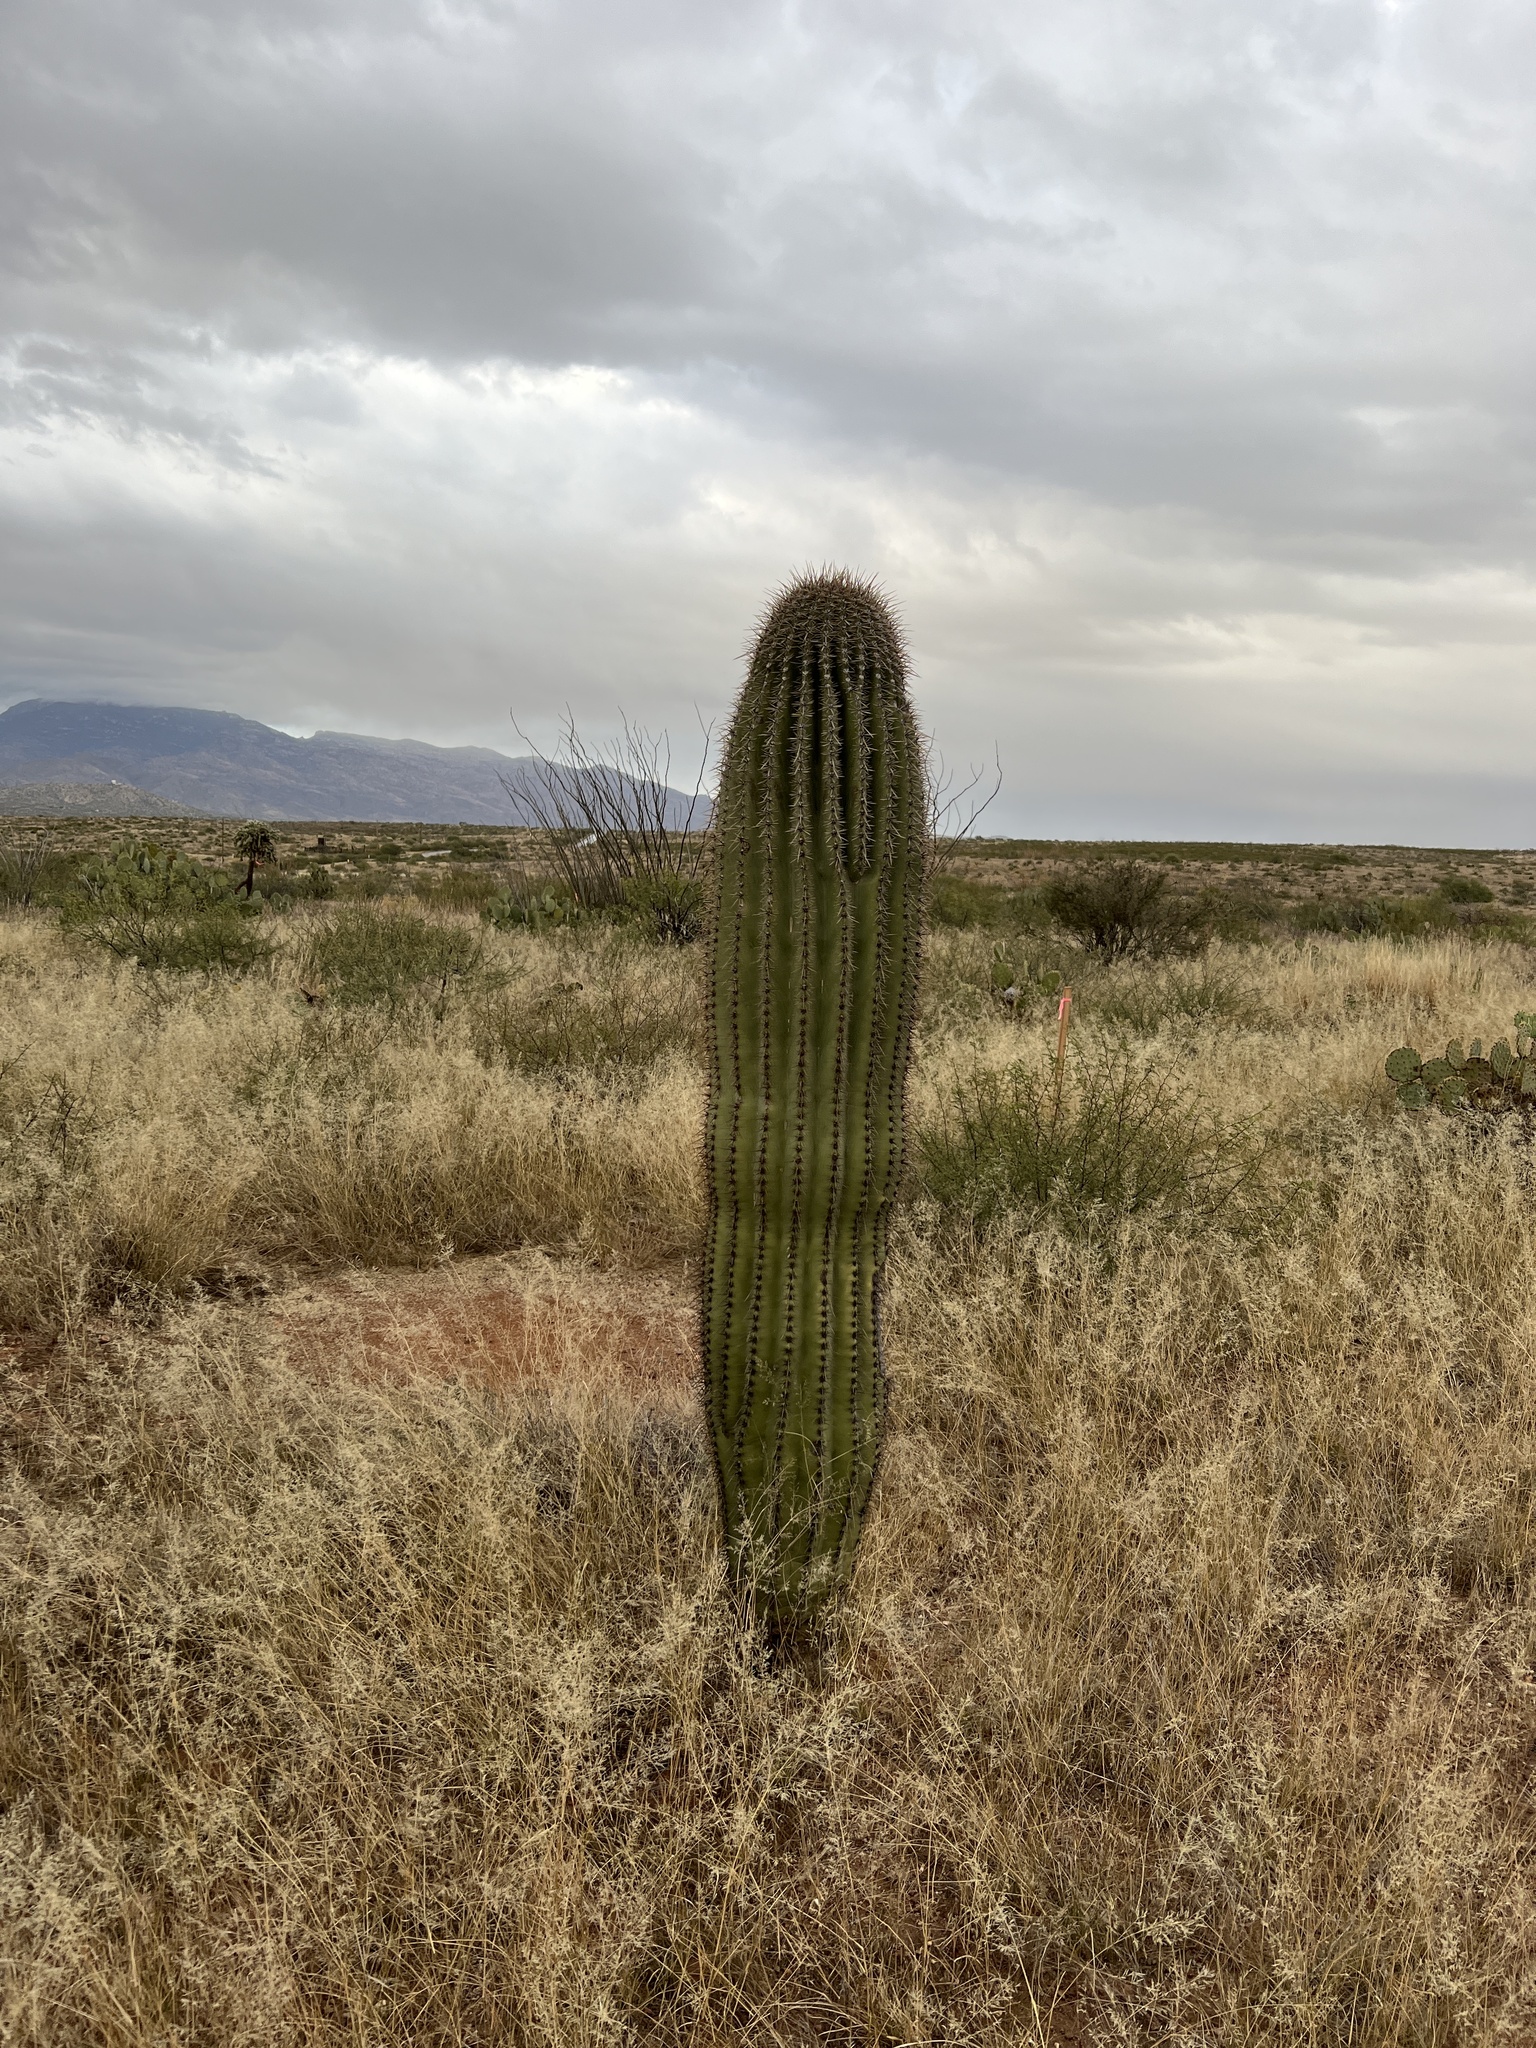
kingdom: Plantae
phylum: Tracheophyta
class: Magnoliopsida
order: Caryophyllales
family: Cactaceae
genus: Carnegiea
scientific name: Carnegiea gigantea
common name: Saguaro
